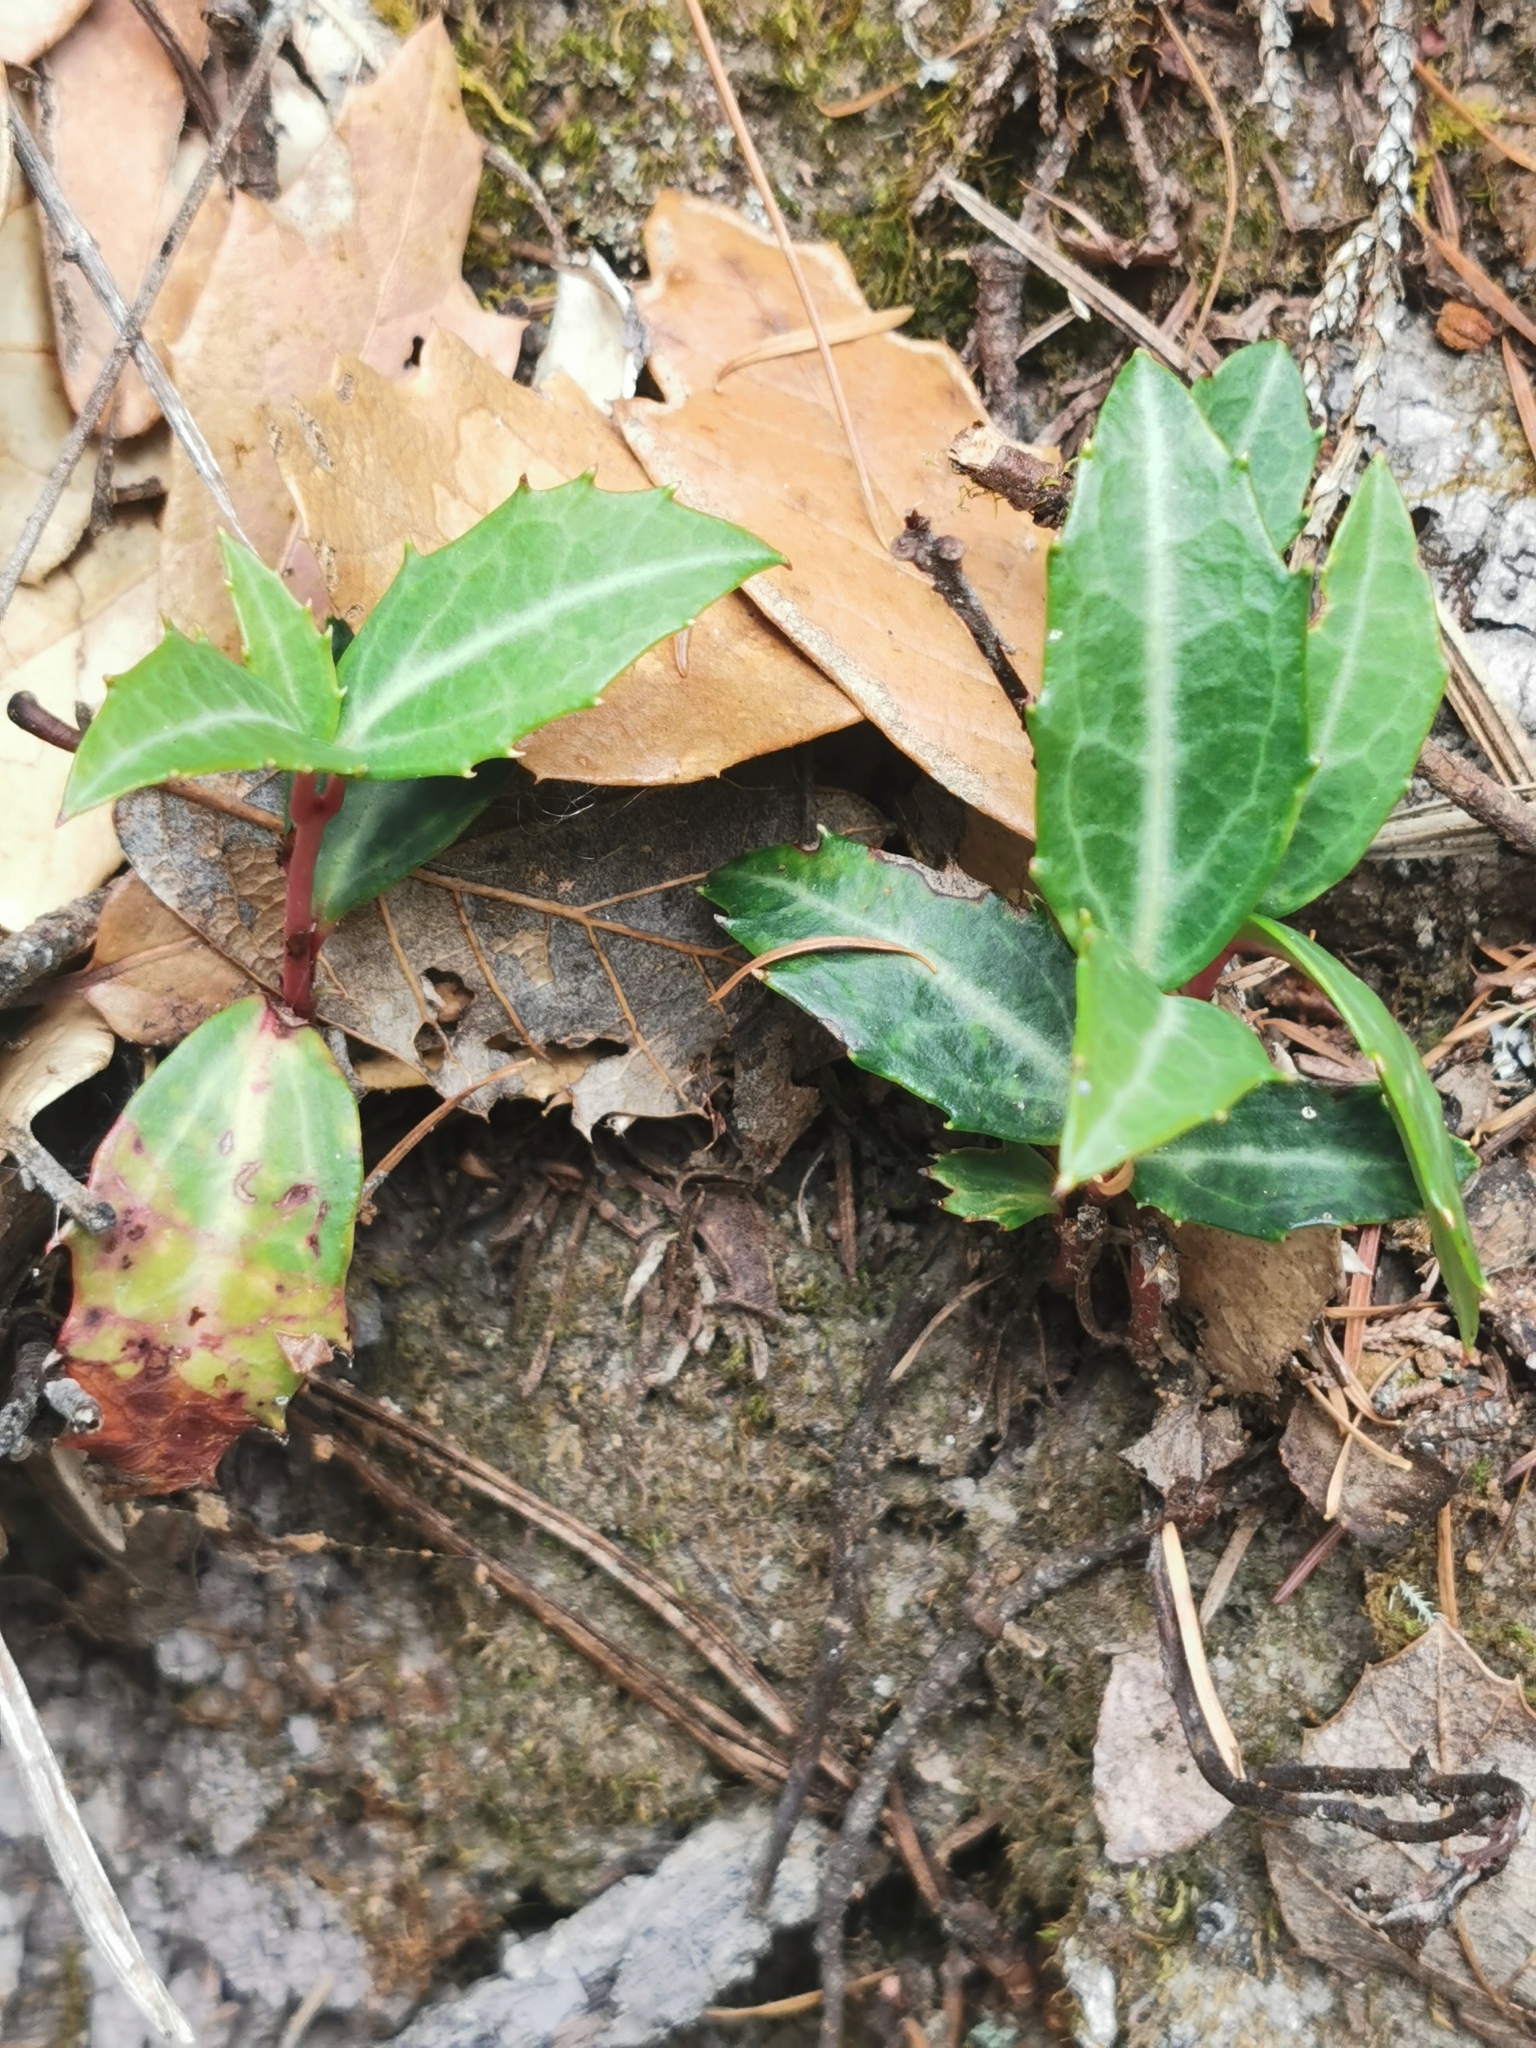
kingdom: Plantae
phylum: Tracheophyta
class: Magnoliopsida
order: Ericales
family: Ericaceae
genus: Chimaphila
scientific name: Chimaphila maculata
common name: Spotted pipsissewa
